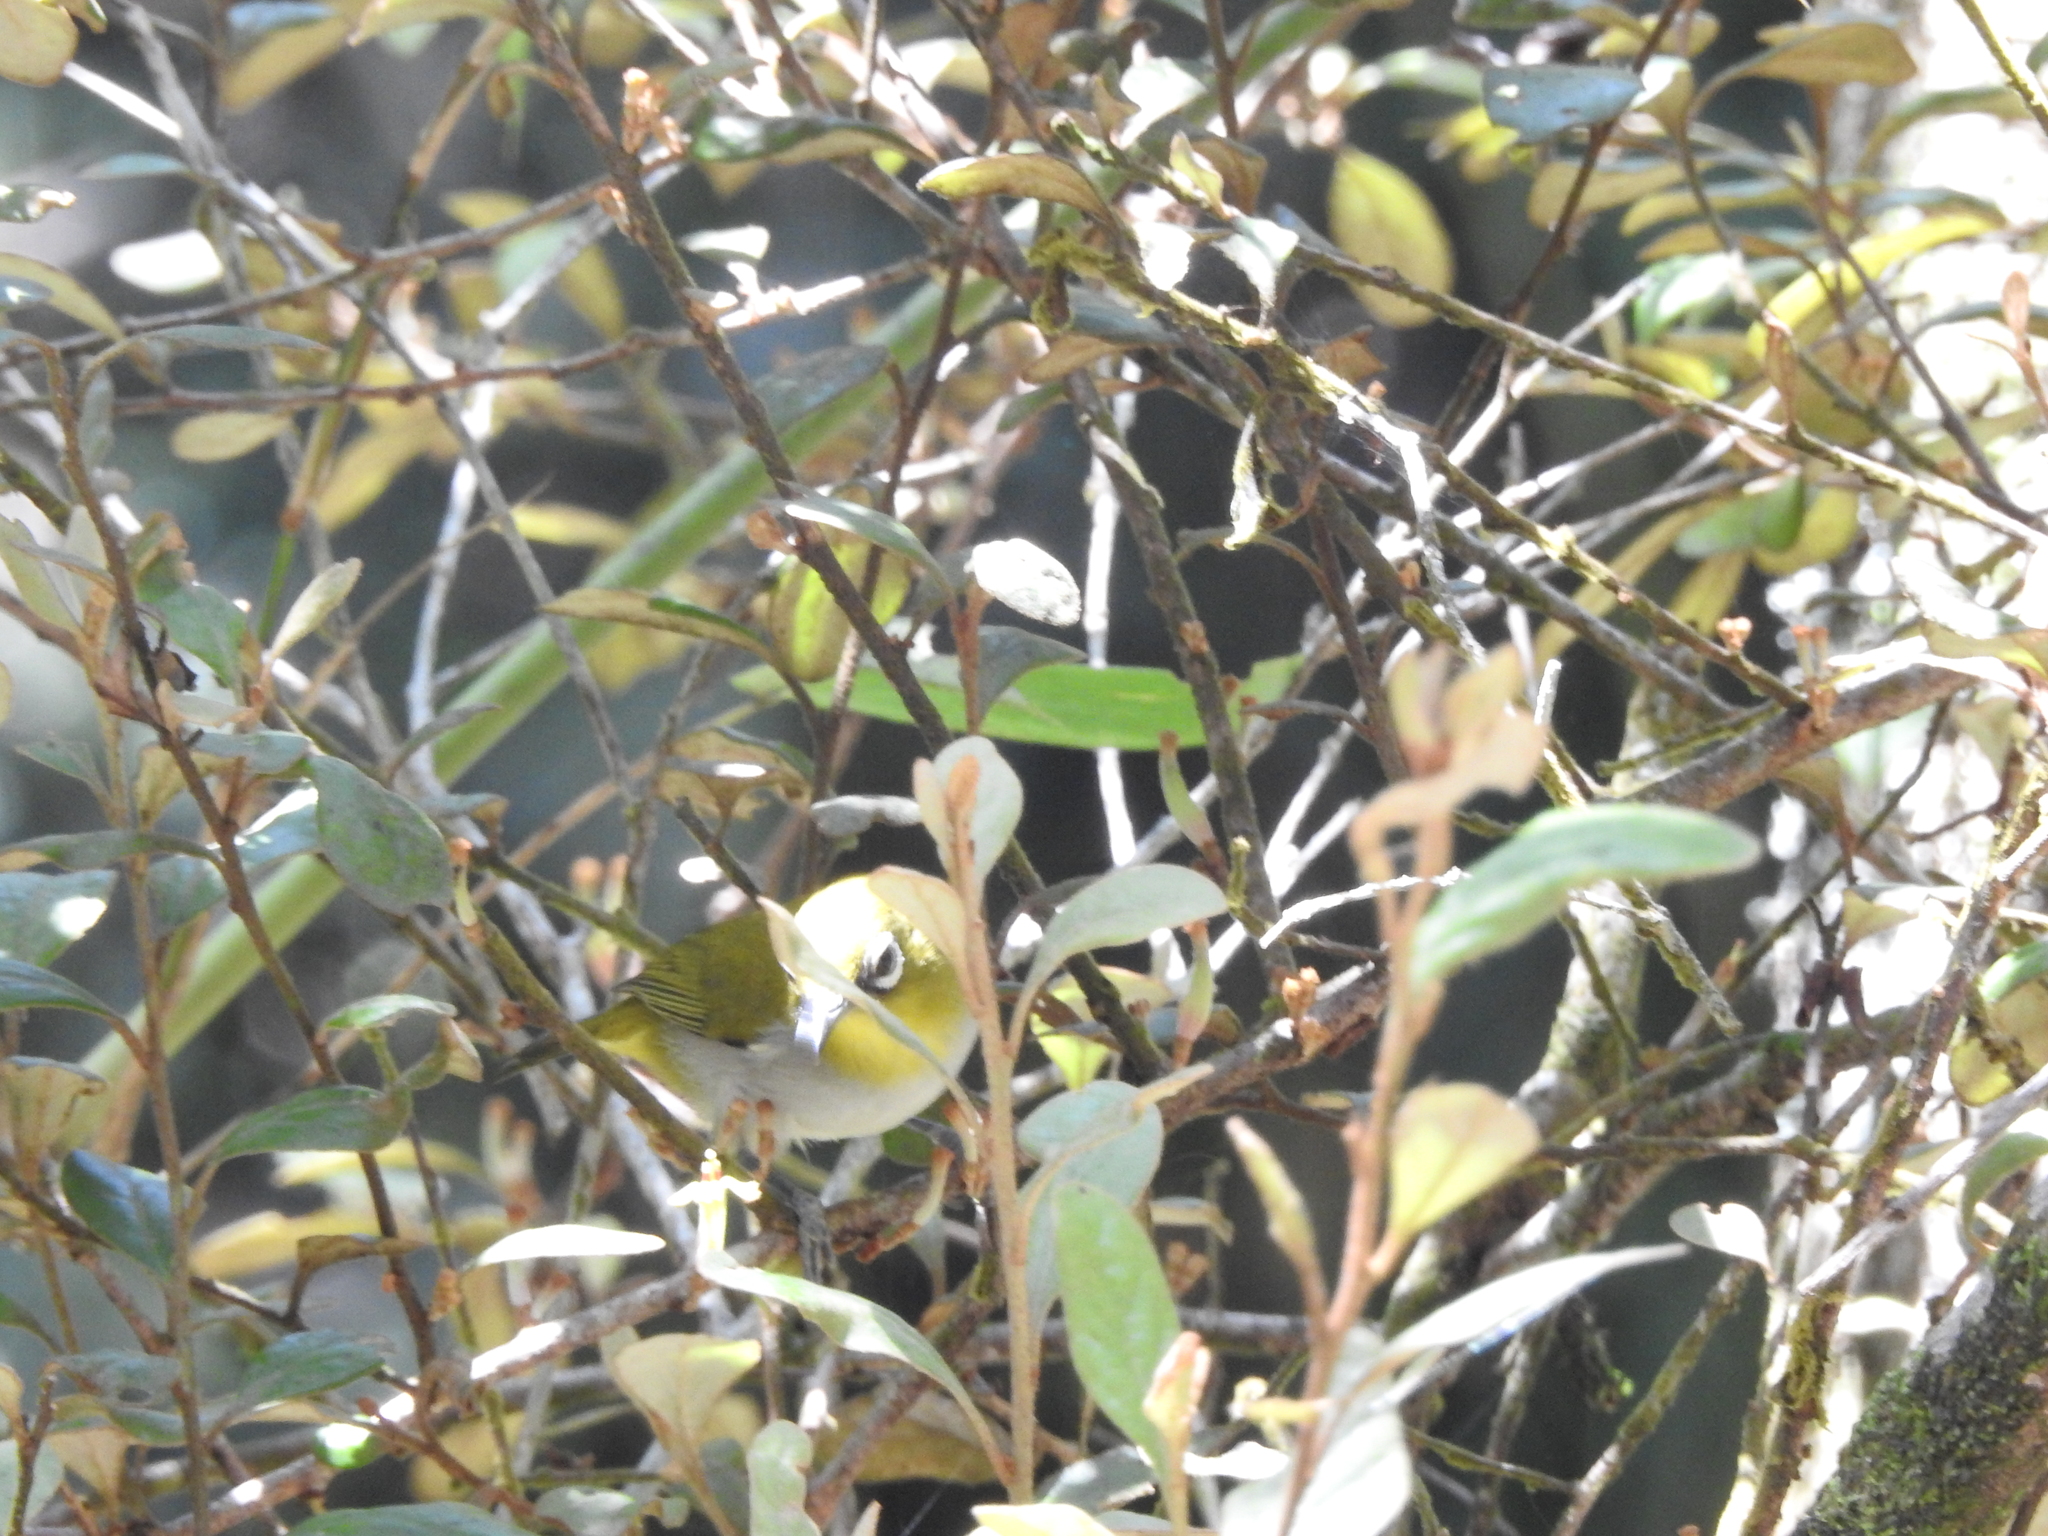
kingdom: Animalia
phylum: Chordata
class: Aves
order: Passeriformes
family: Zosteropidae
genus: Zosterops
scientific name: Zosterops palpebrosus
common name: Oriental white-eye
